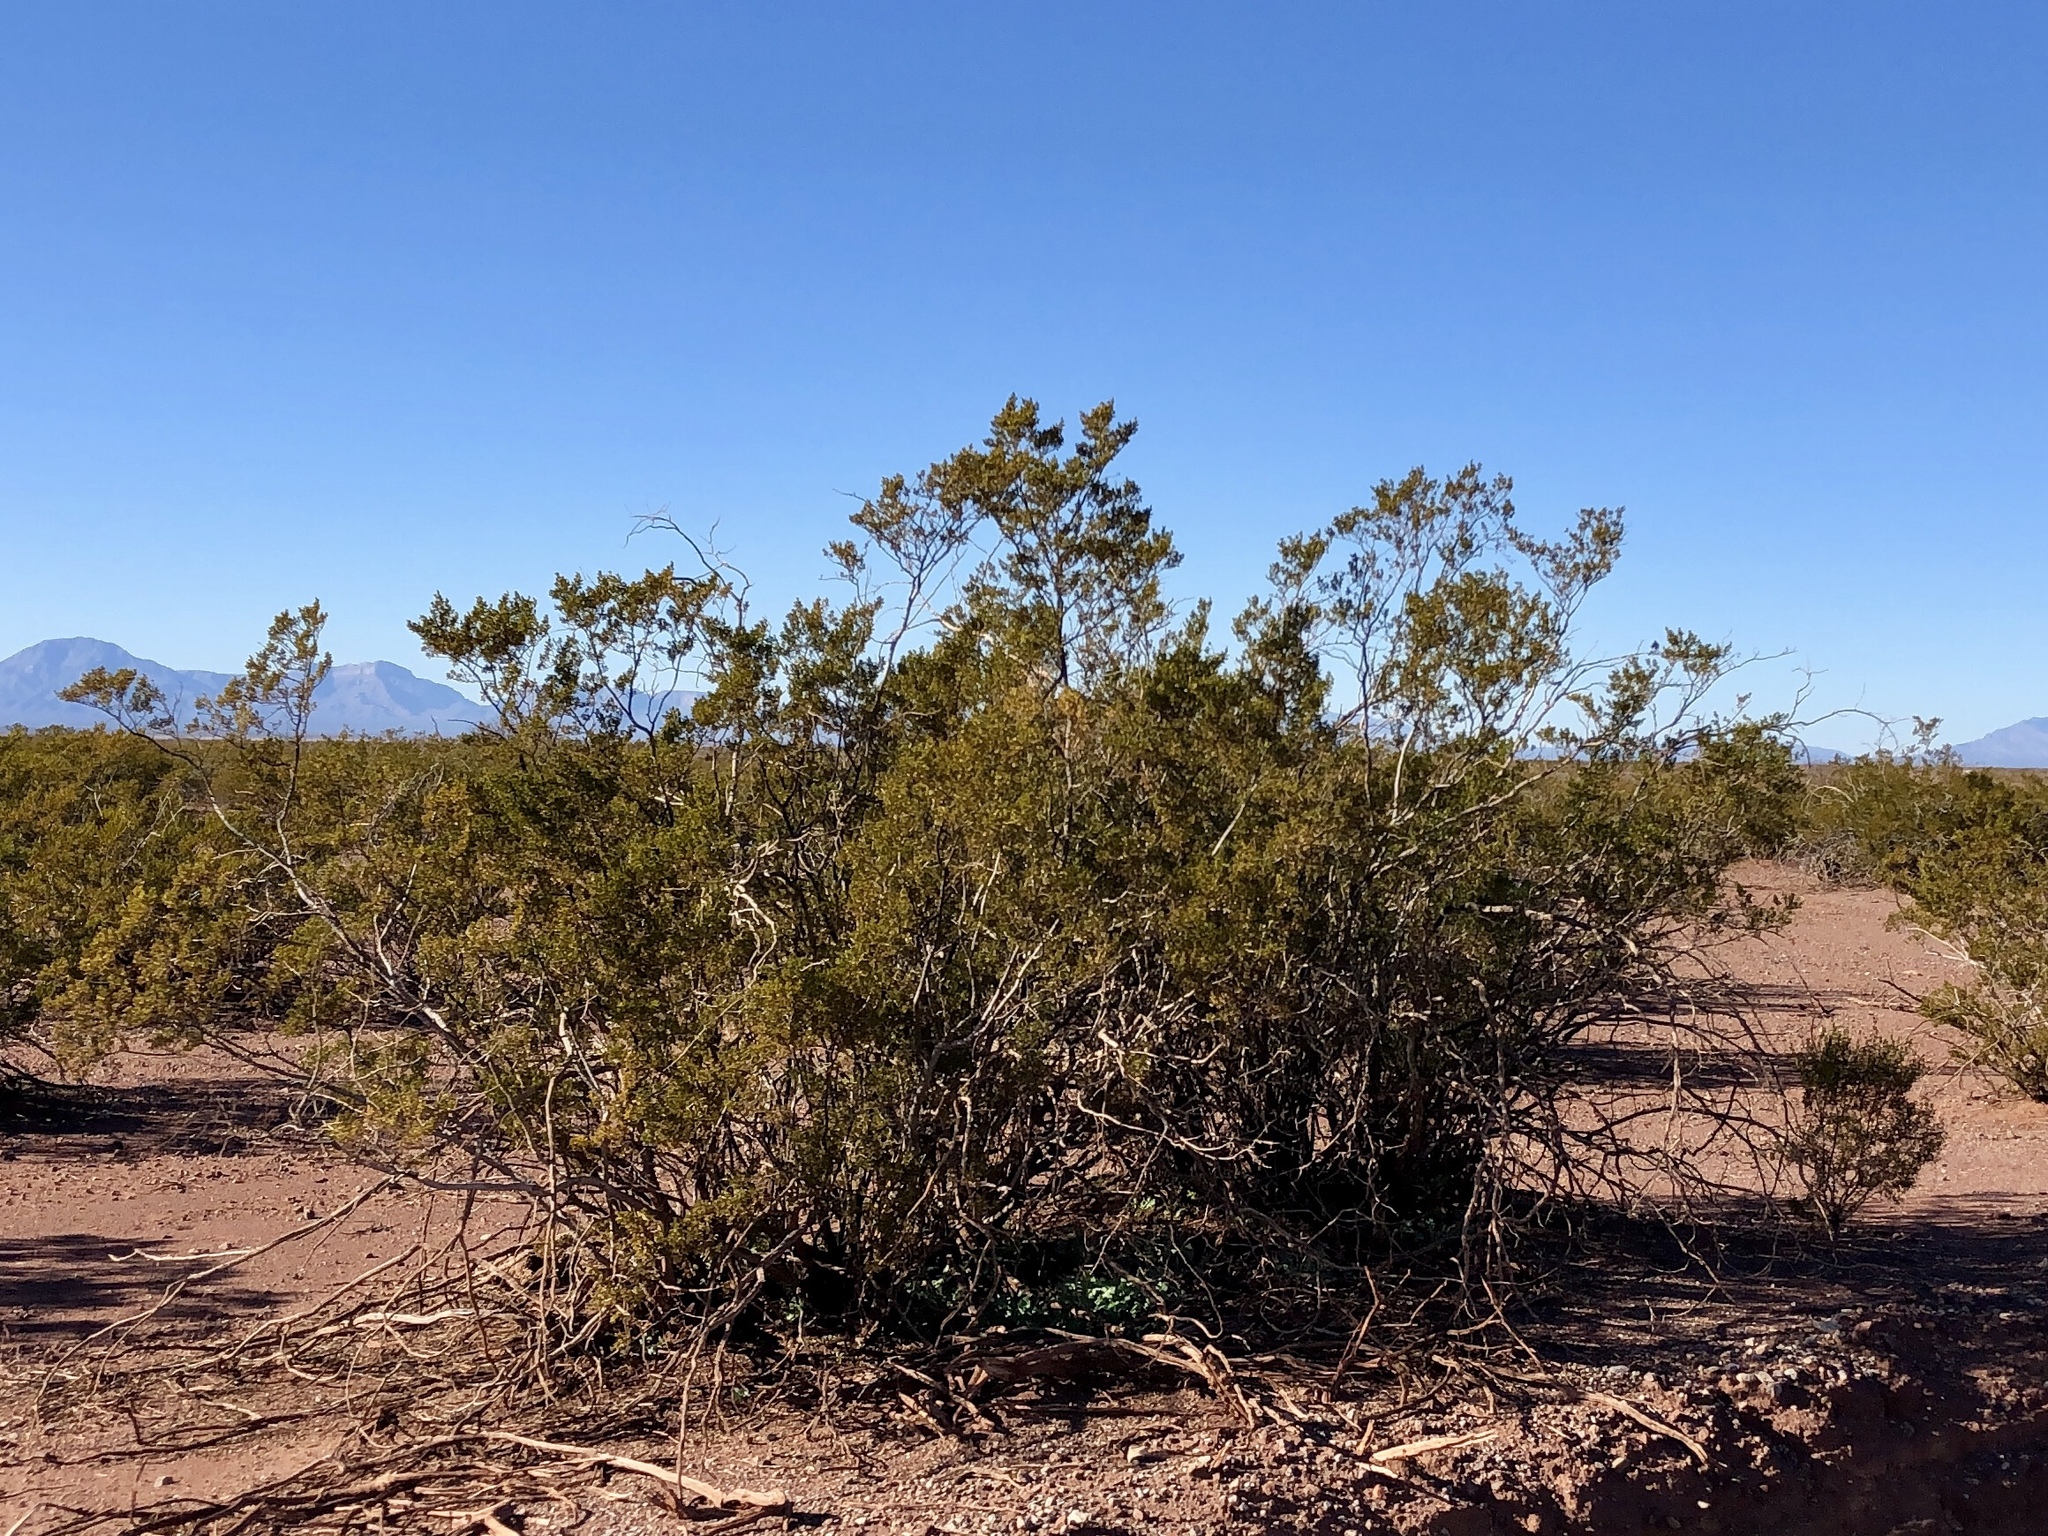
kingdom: Plantae
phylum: Tracheophyta
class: Magnoliopsida
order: Zygophyllales
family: Zygophyllaceae
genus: Larrea
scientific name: Larrea tridentata
